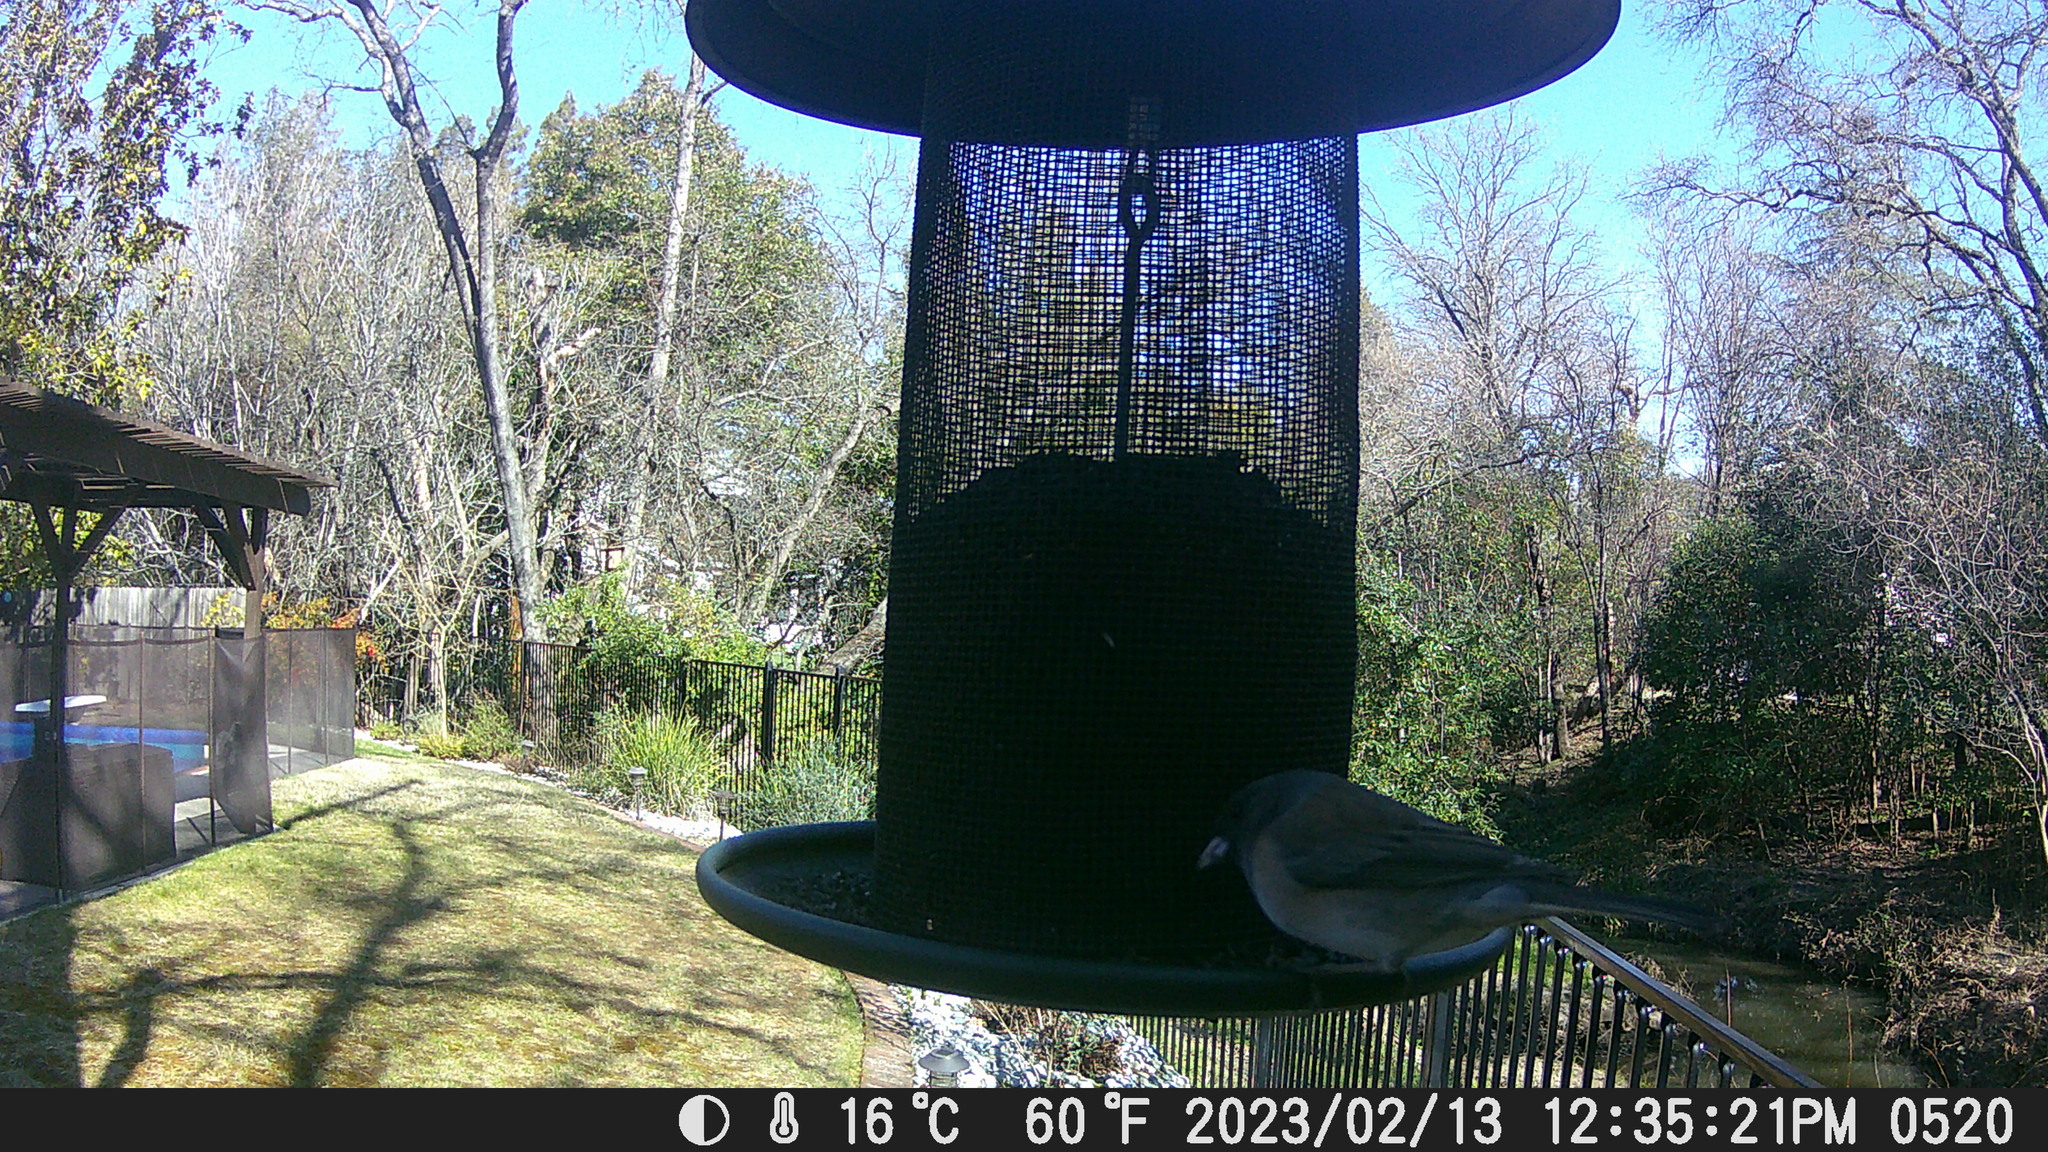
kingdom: Animalia
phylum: Chordata
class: Aves
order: Passeriformes
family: Passerellidae
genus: Junco
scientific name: Junco hyemalis
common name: Dark-eyed junco
